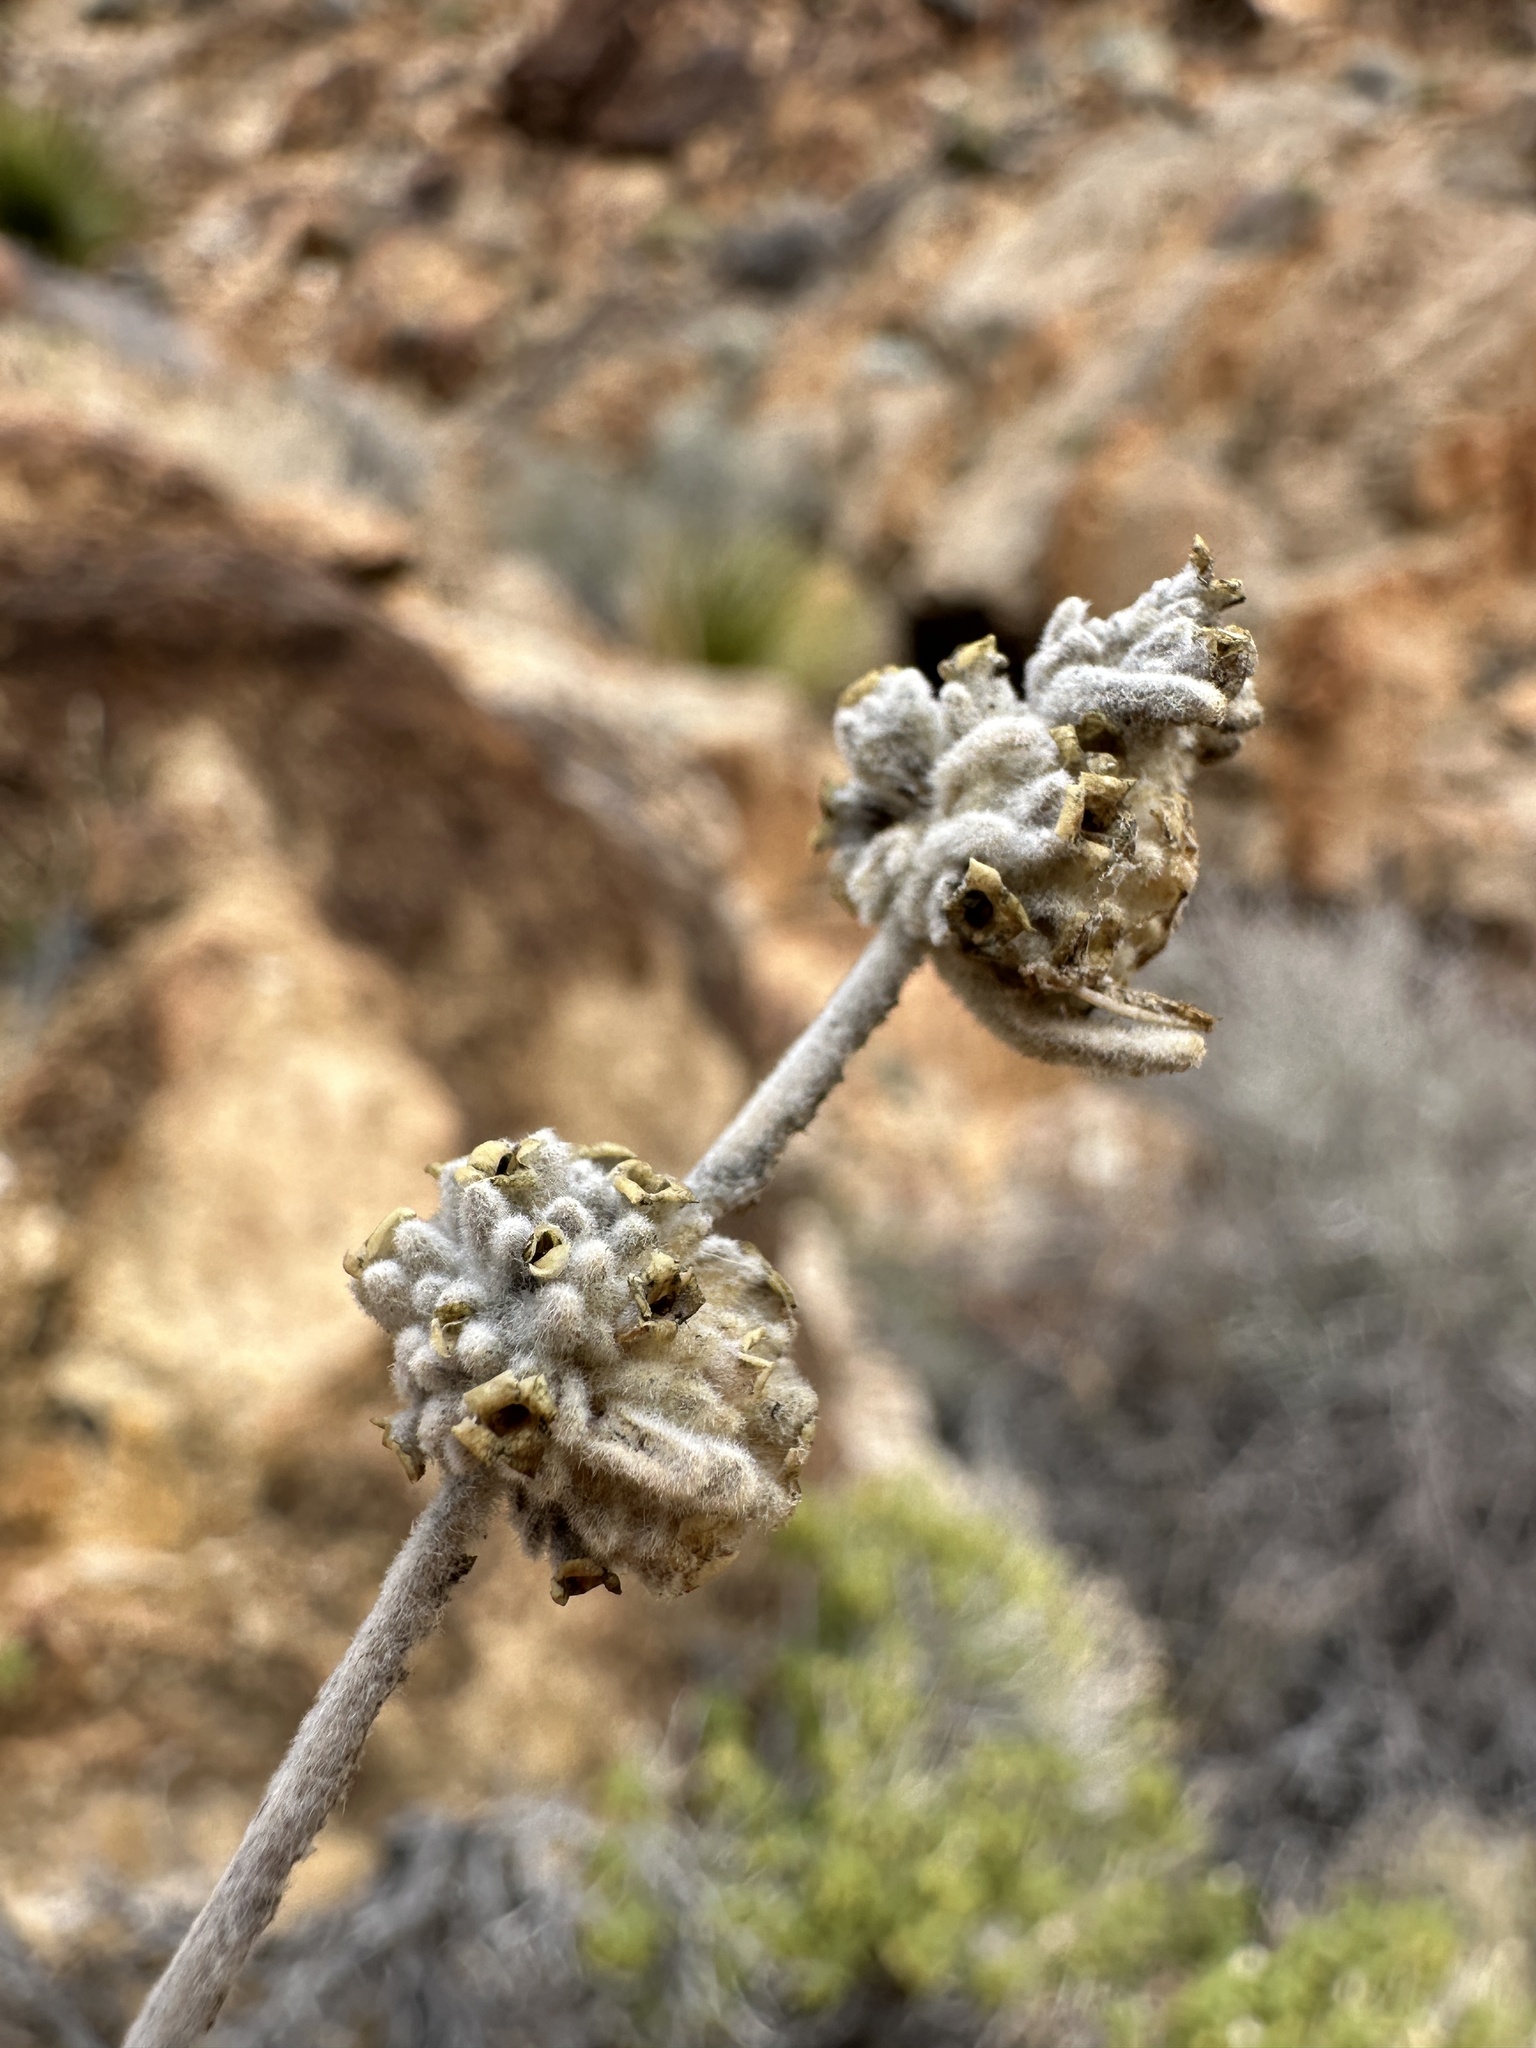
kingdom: Plantae
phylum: Tracheophyta
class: Magnoliopsida
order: Lamiales
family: Scrophulariaceae
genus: Buddleja
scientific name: Buddleja utahensis
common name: Utah butterfly-bush
